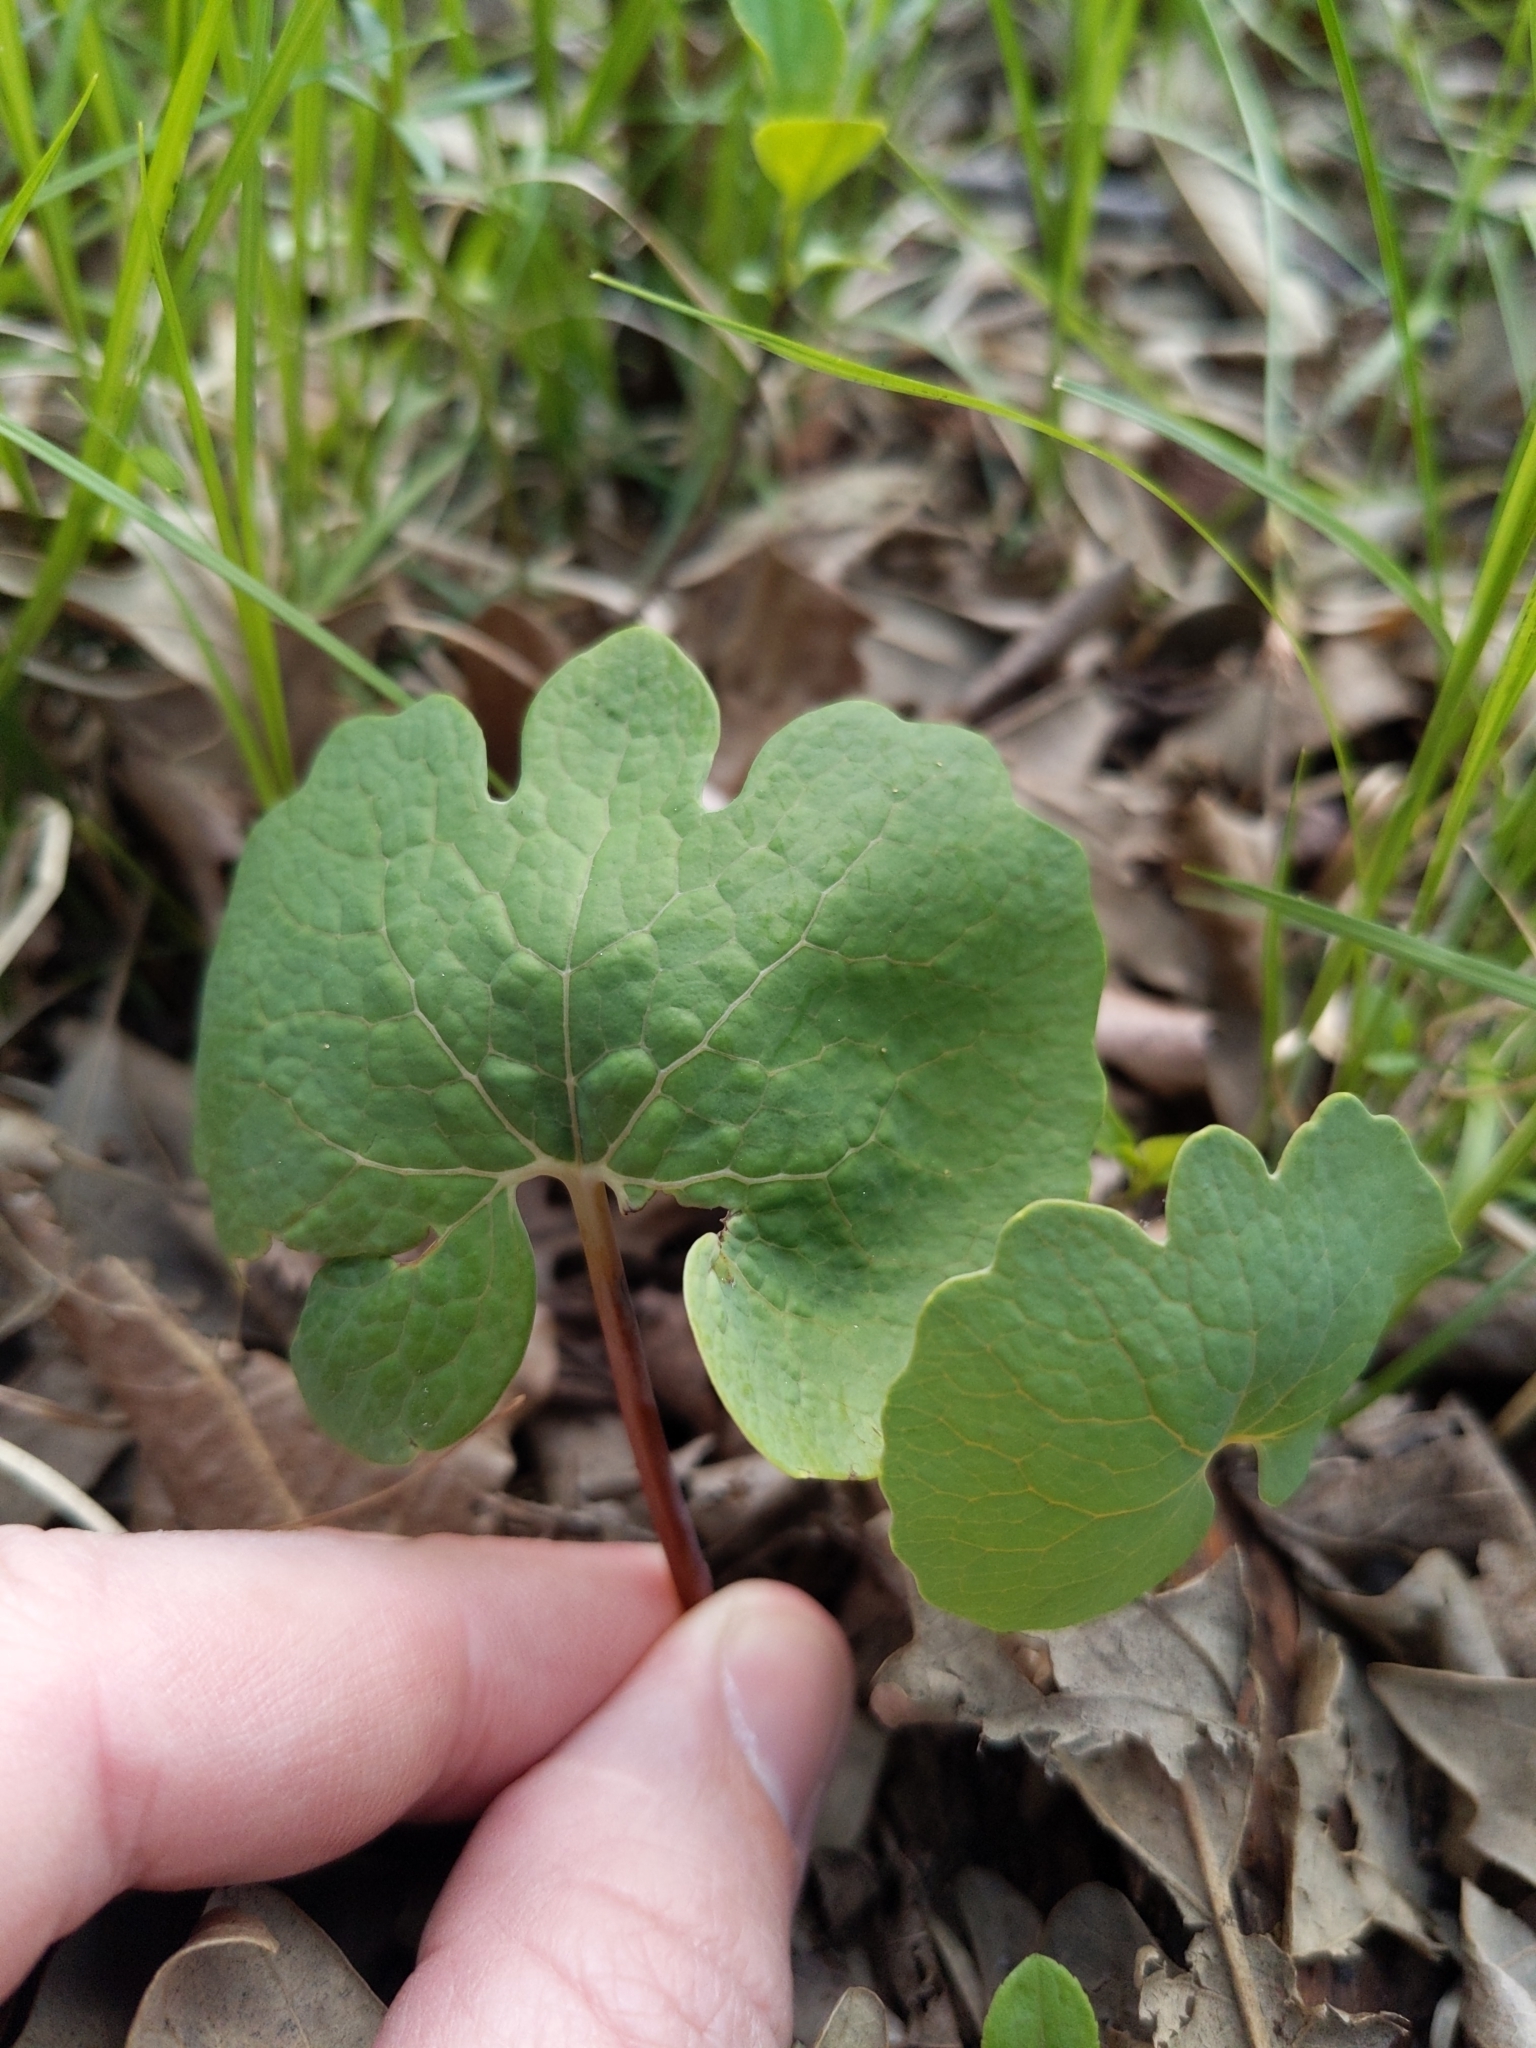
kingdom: Plantae
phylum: Tracheophyta
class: Magnoliopsida
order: Ranunculales
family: Papaveraceae
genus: Sanguinaria
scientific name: Sanguinaria canadensis
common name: Bloodroot
